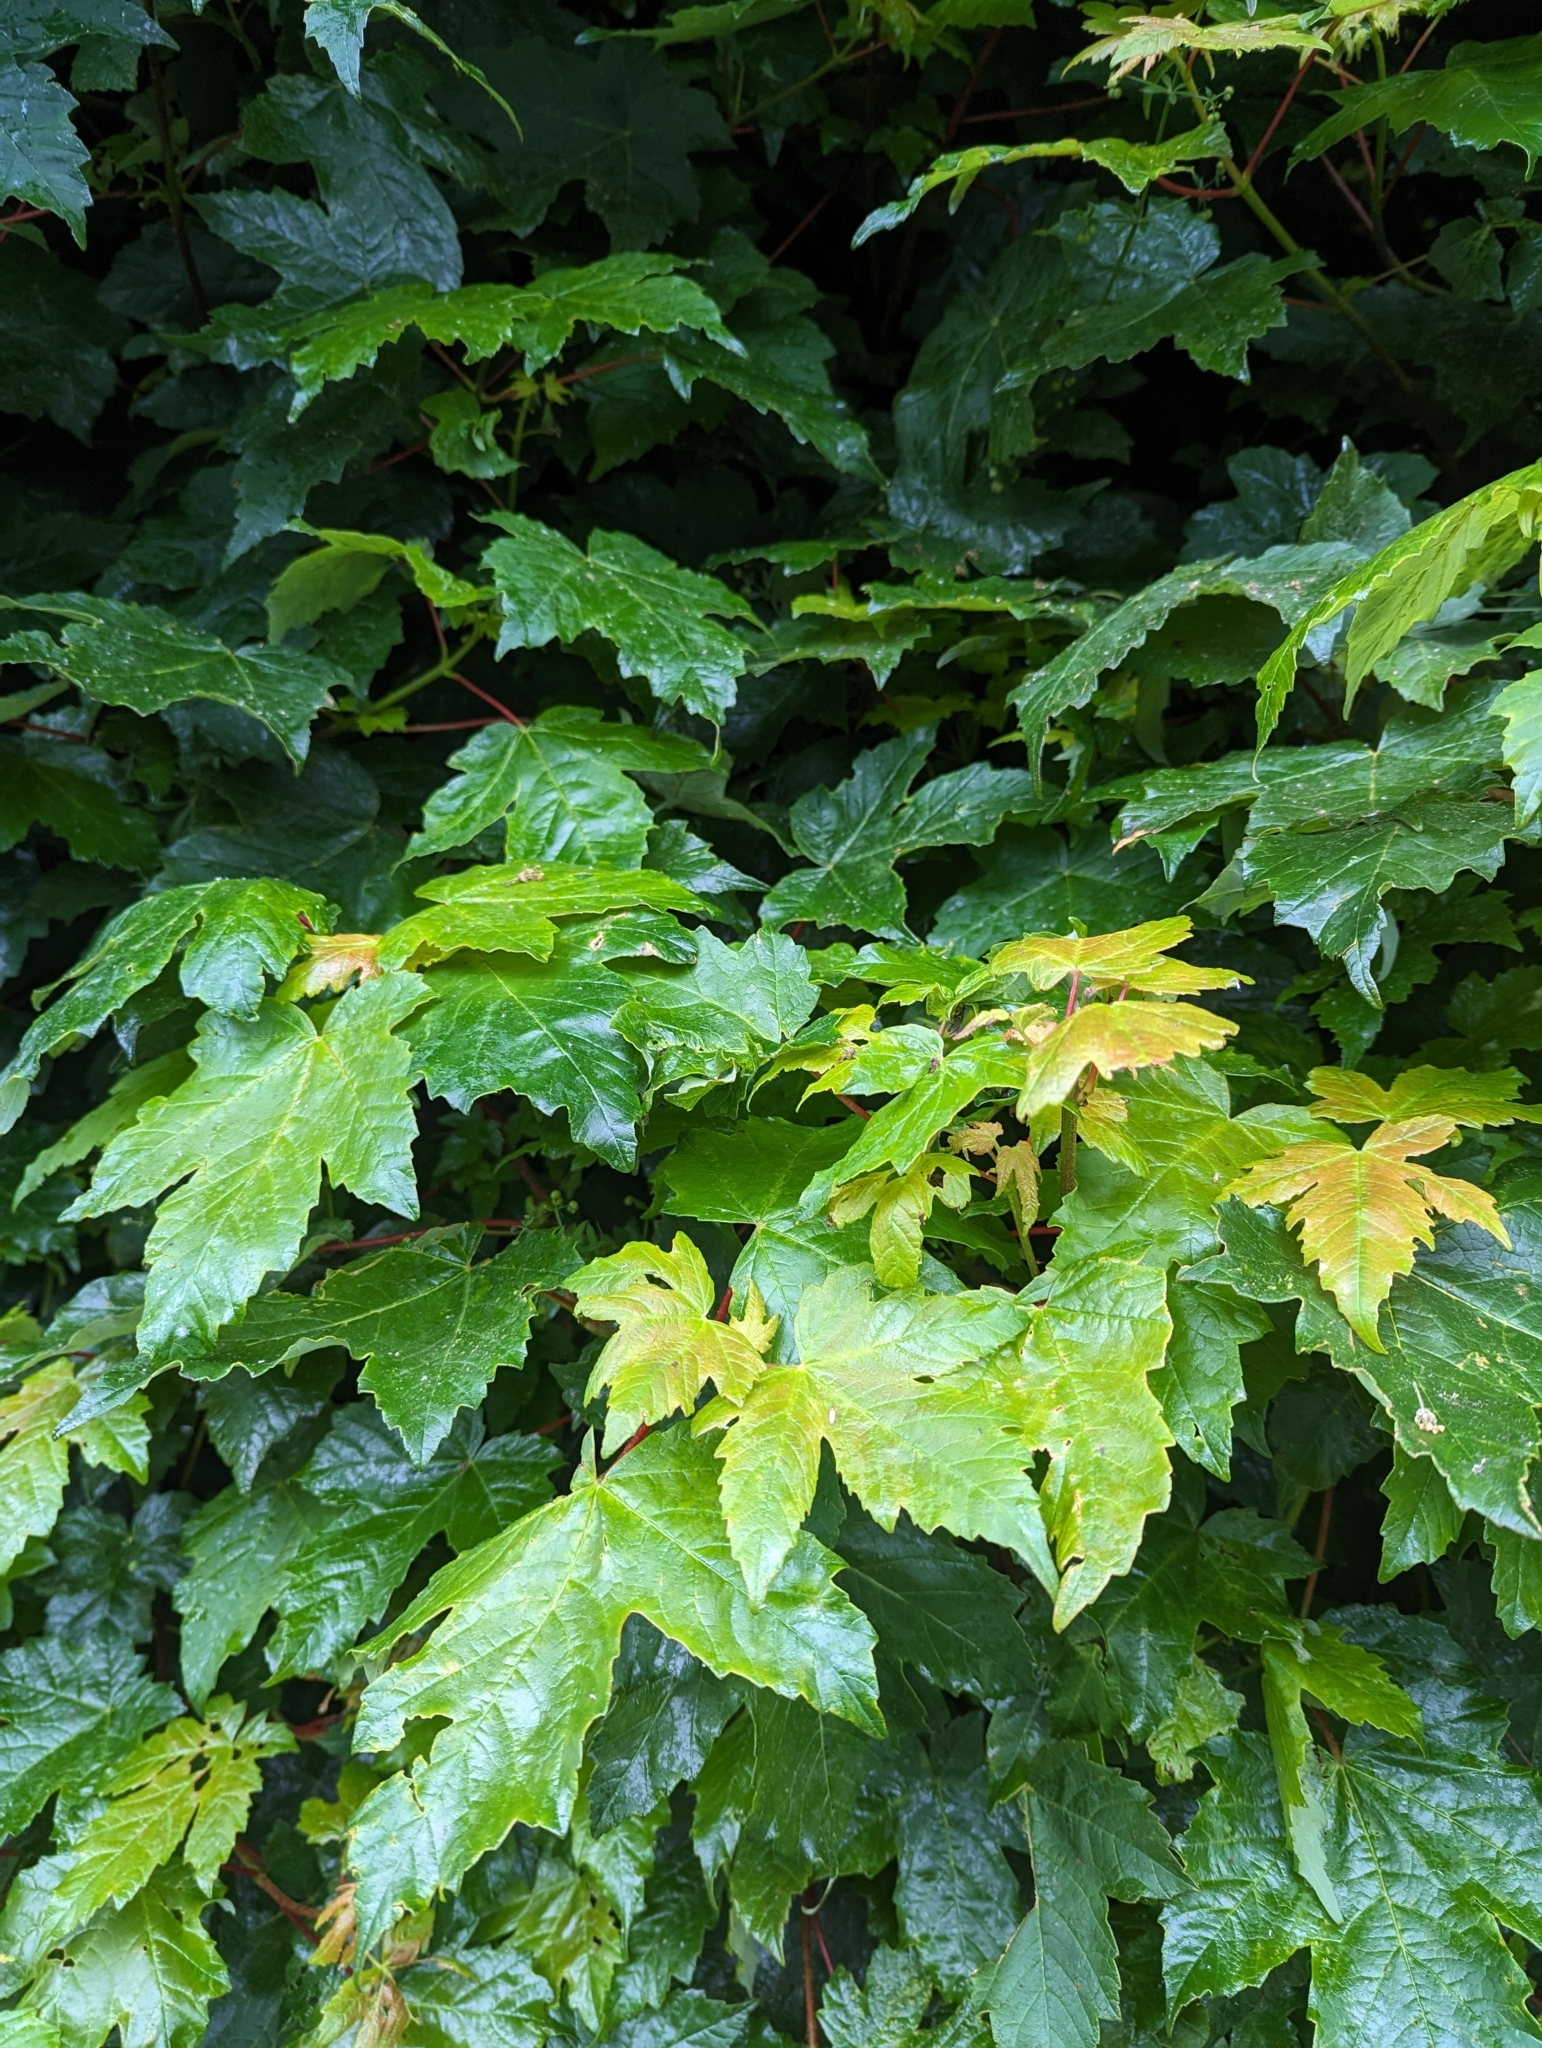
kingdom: Plantae
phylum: Tracheophyta
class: Magnoliopsida
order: Sapindales
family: Sapindaceae
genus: Acer
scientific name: Acer pseudoplatanus
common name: Sycamore
